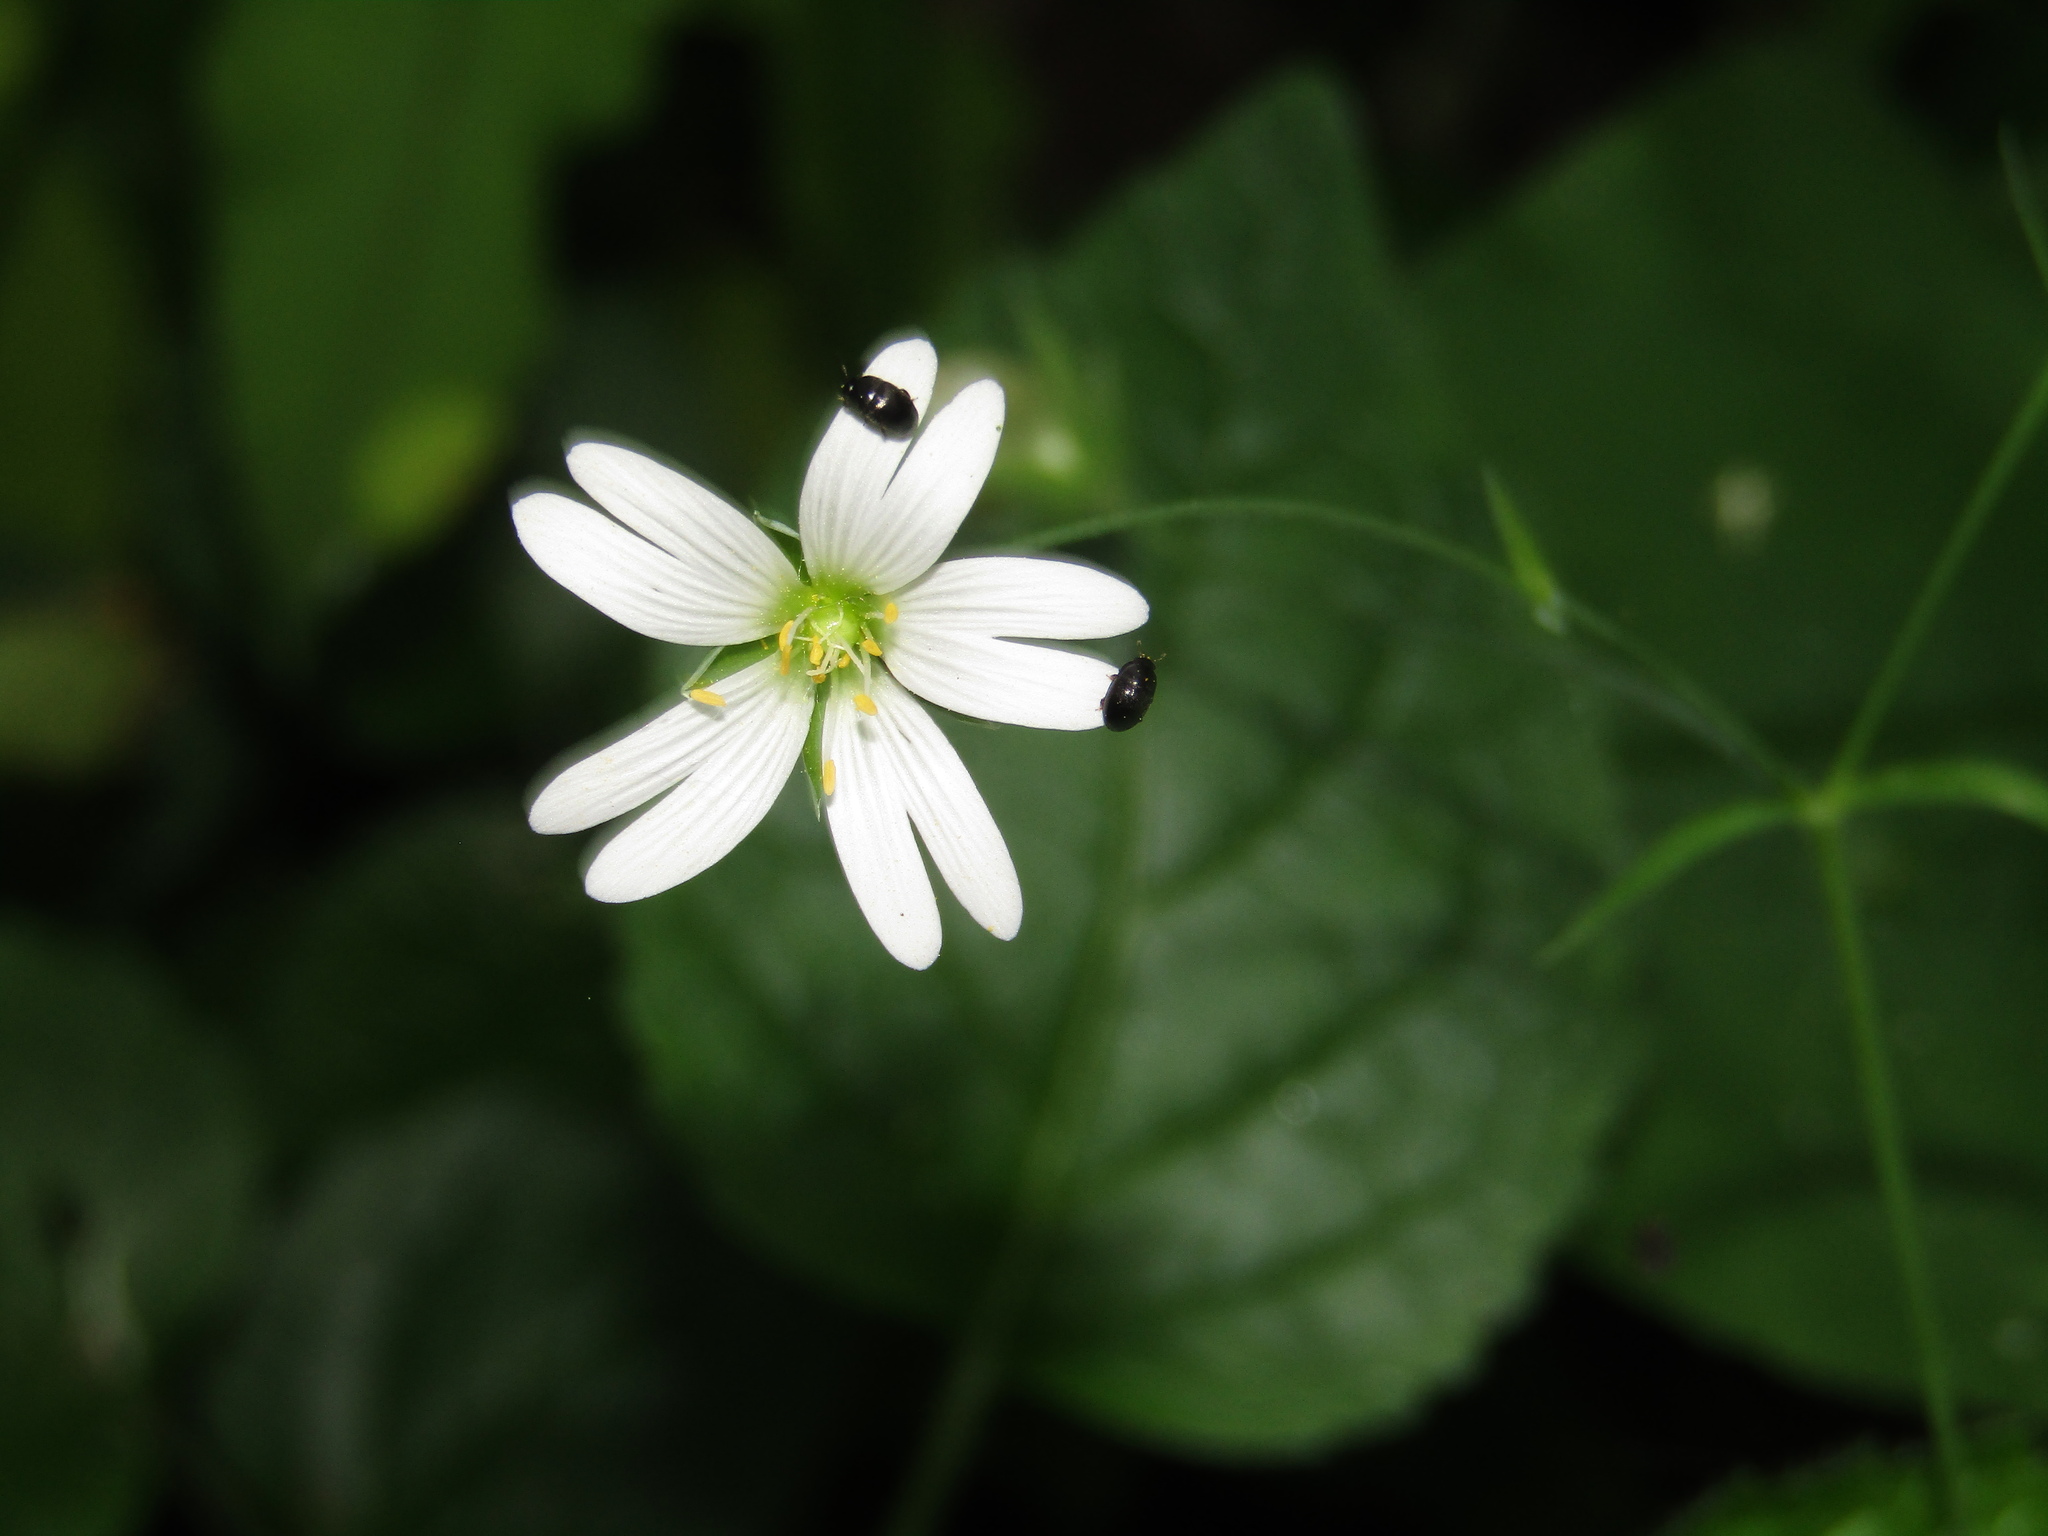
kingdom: Plantae
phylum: Tracheophyta
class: Magnoliopsida
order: Caryophyllales
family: Caryophyllaceae
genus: Rabelera
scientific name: Rabelera holostea
